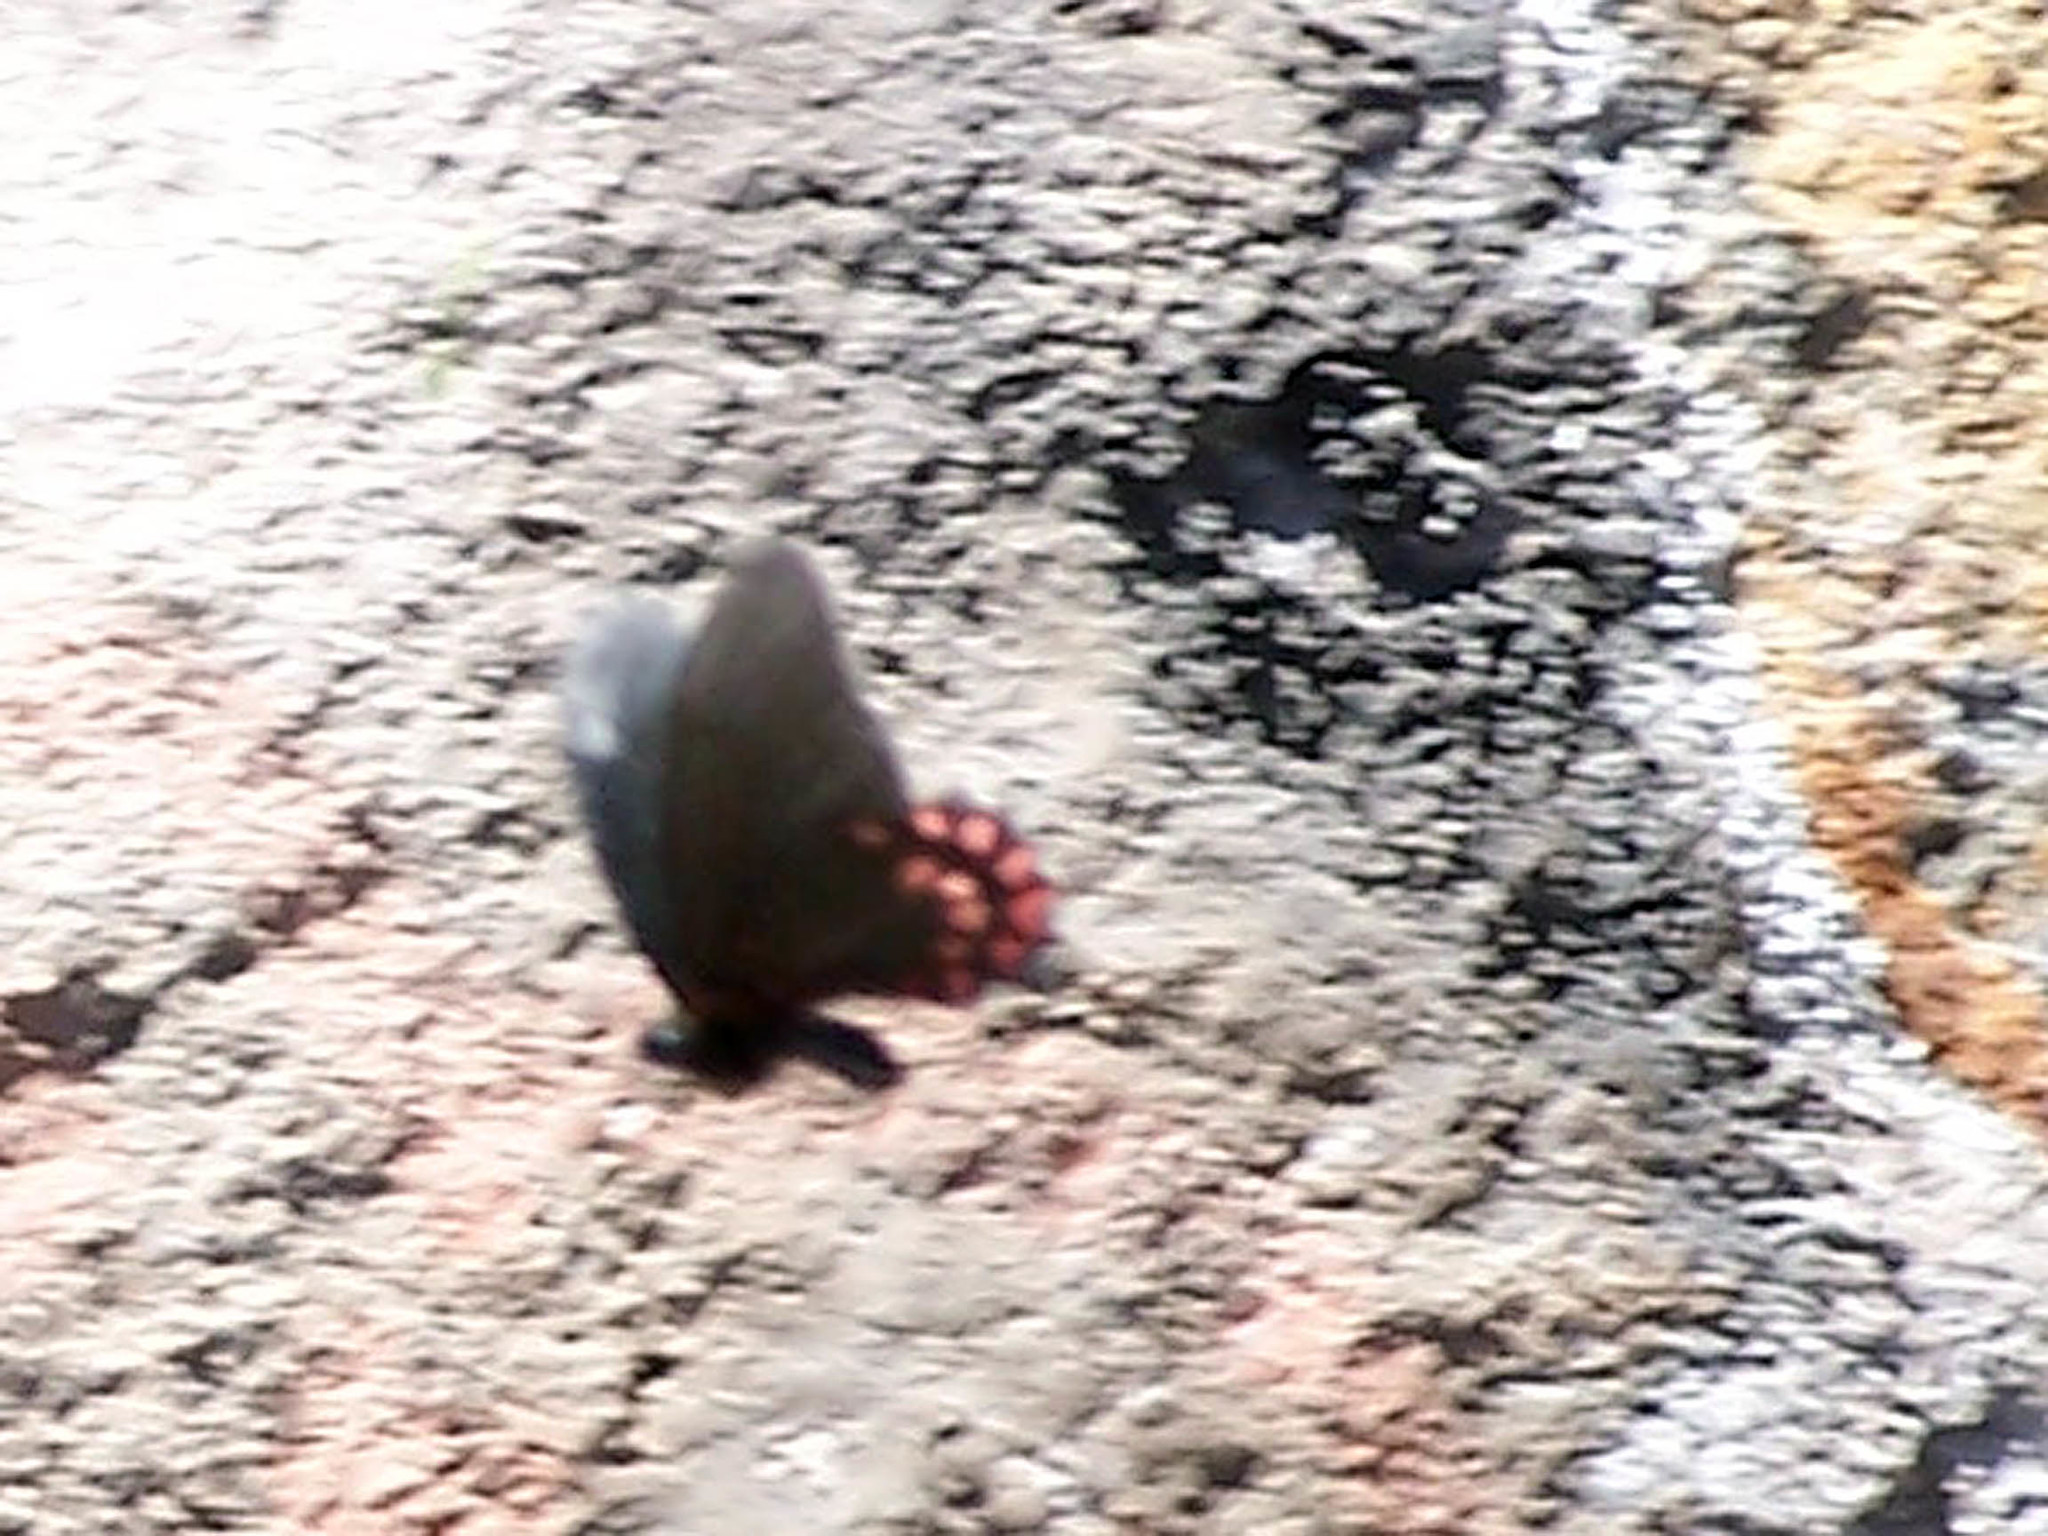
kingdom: Animalia
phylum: Arthropoda
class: Insecta
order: Lepidoptera
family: Papilionidae
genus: Parides
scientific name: Parides photinus
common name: Pink-spotted cattleheart
